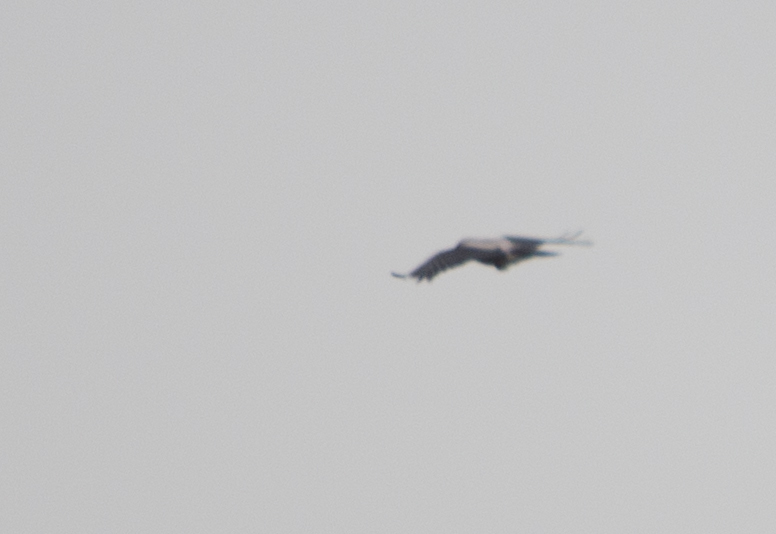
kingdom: Animalia
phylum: Chordata
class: Aves
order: Passeriformes
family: Corvidae
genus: Corvus
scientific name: Corvus cornix
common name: Hooded crow
